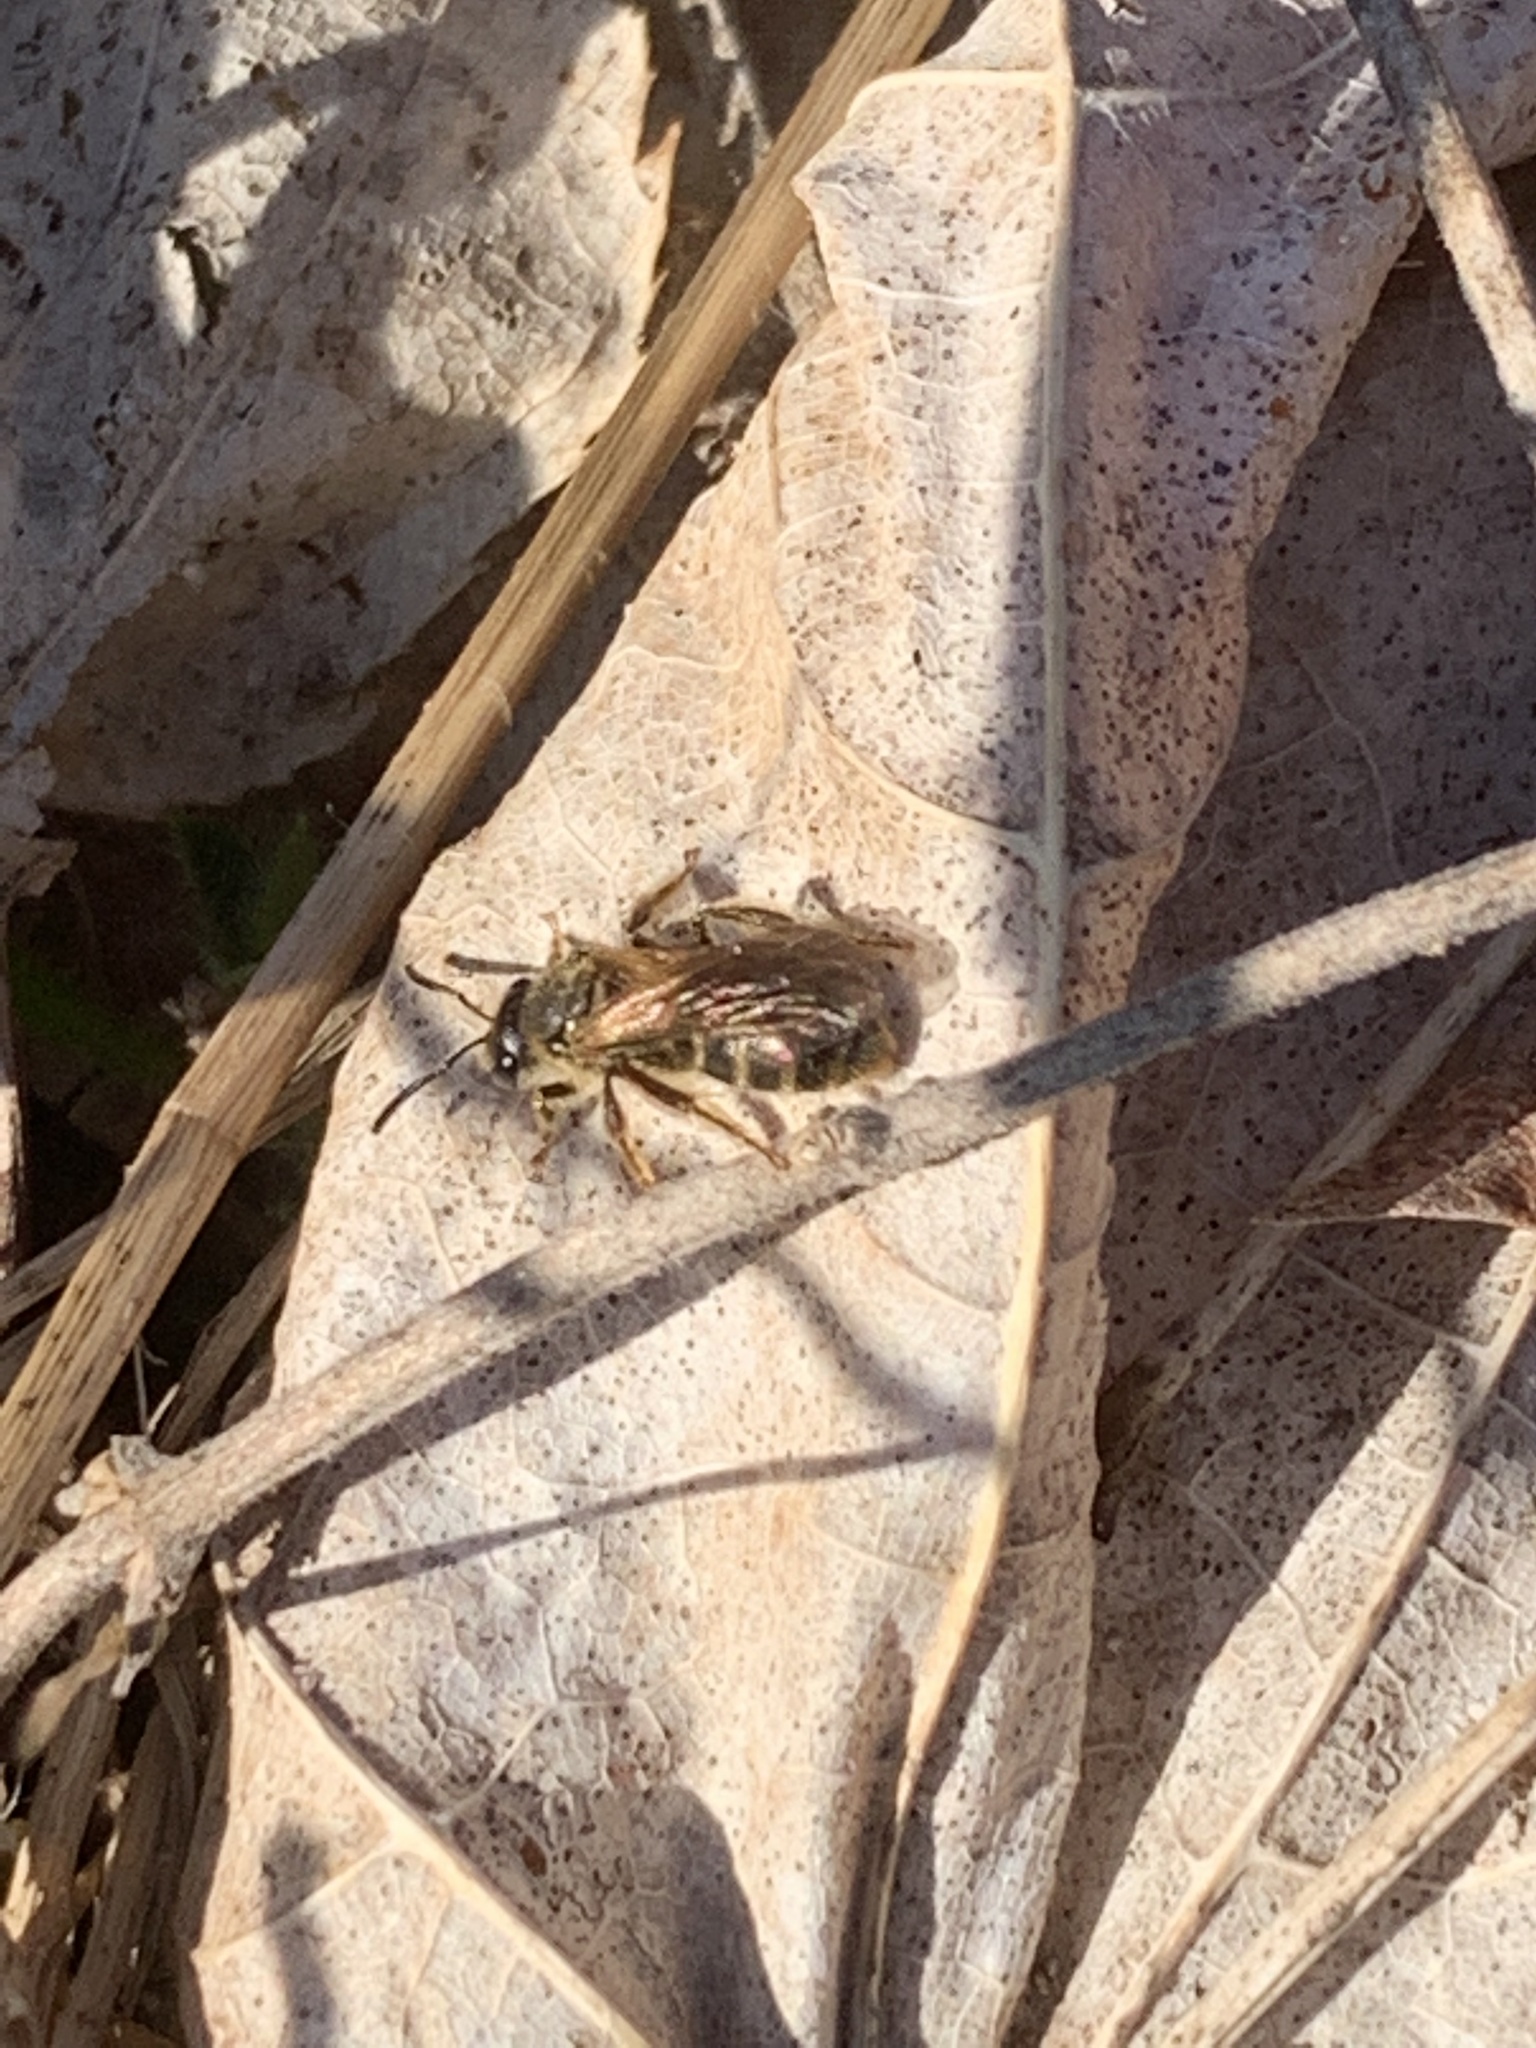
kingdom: Animalia
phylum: Arthropoda
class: Insecta
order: Hymenoptera
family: Halictidae
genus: Halictus
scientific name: Halictus confusus
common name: Southern bronze furrow bee
